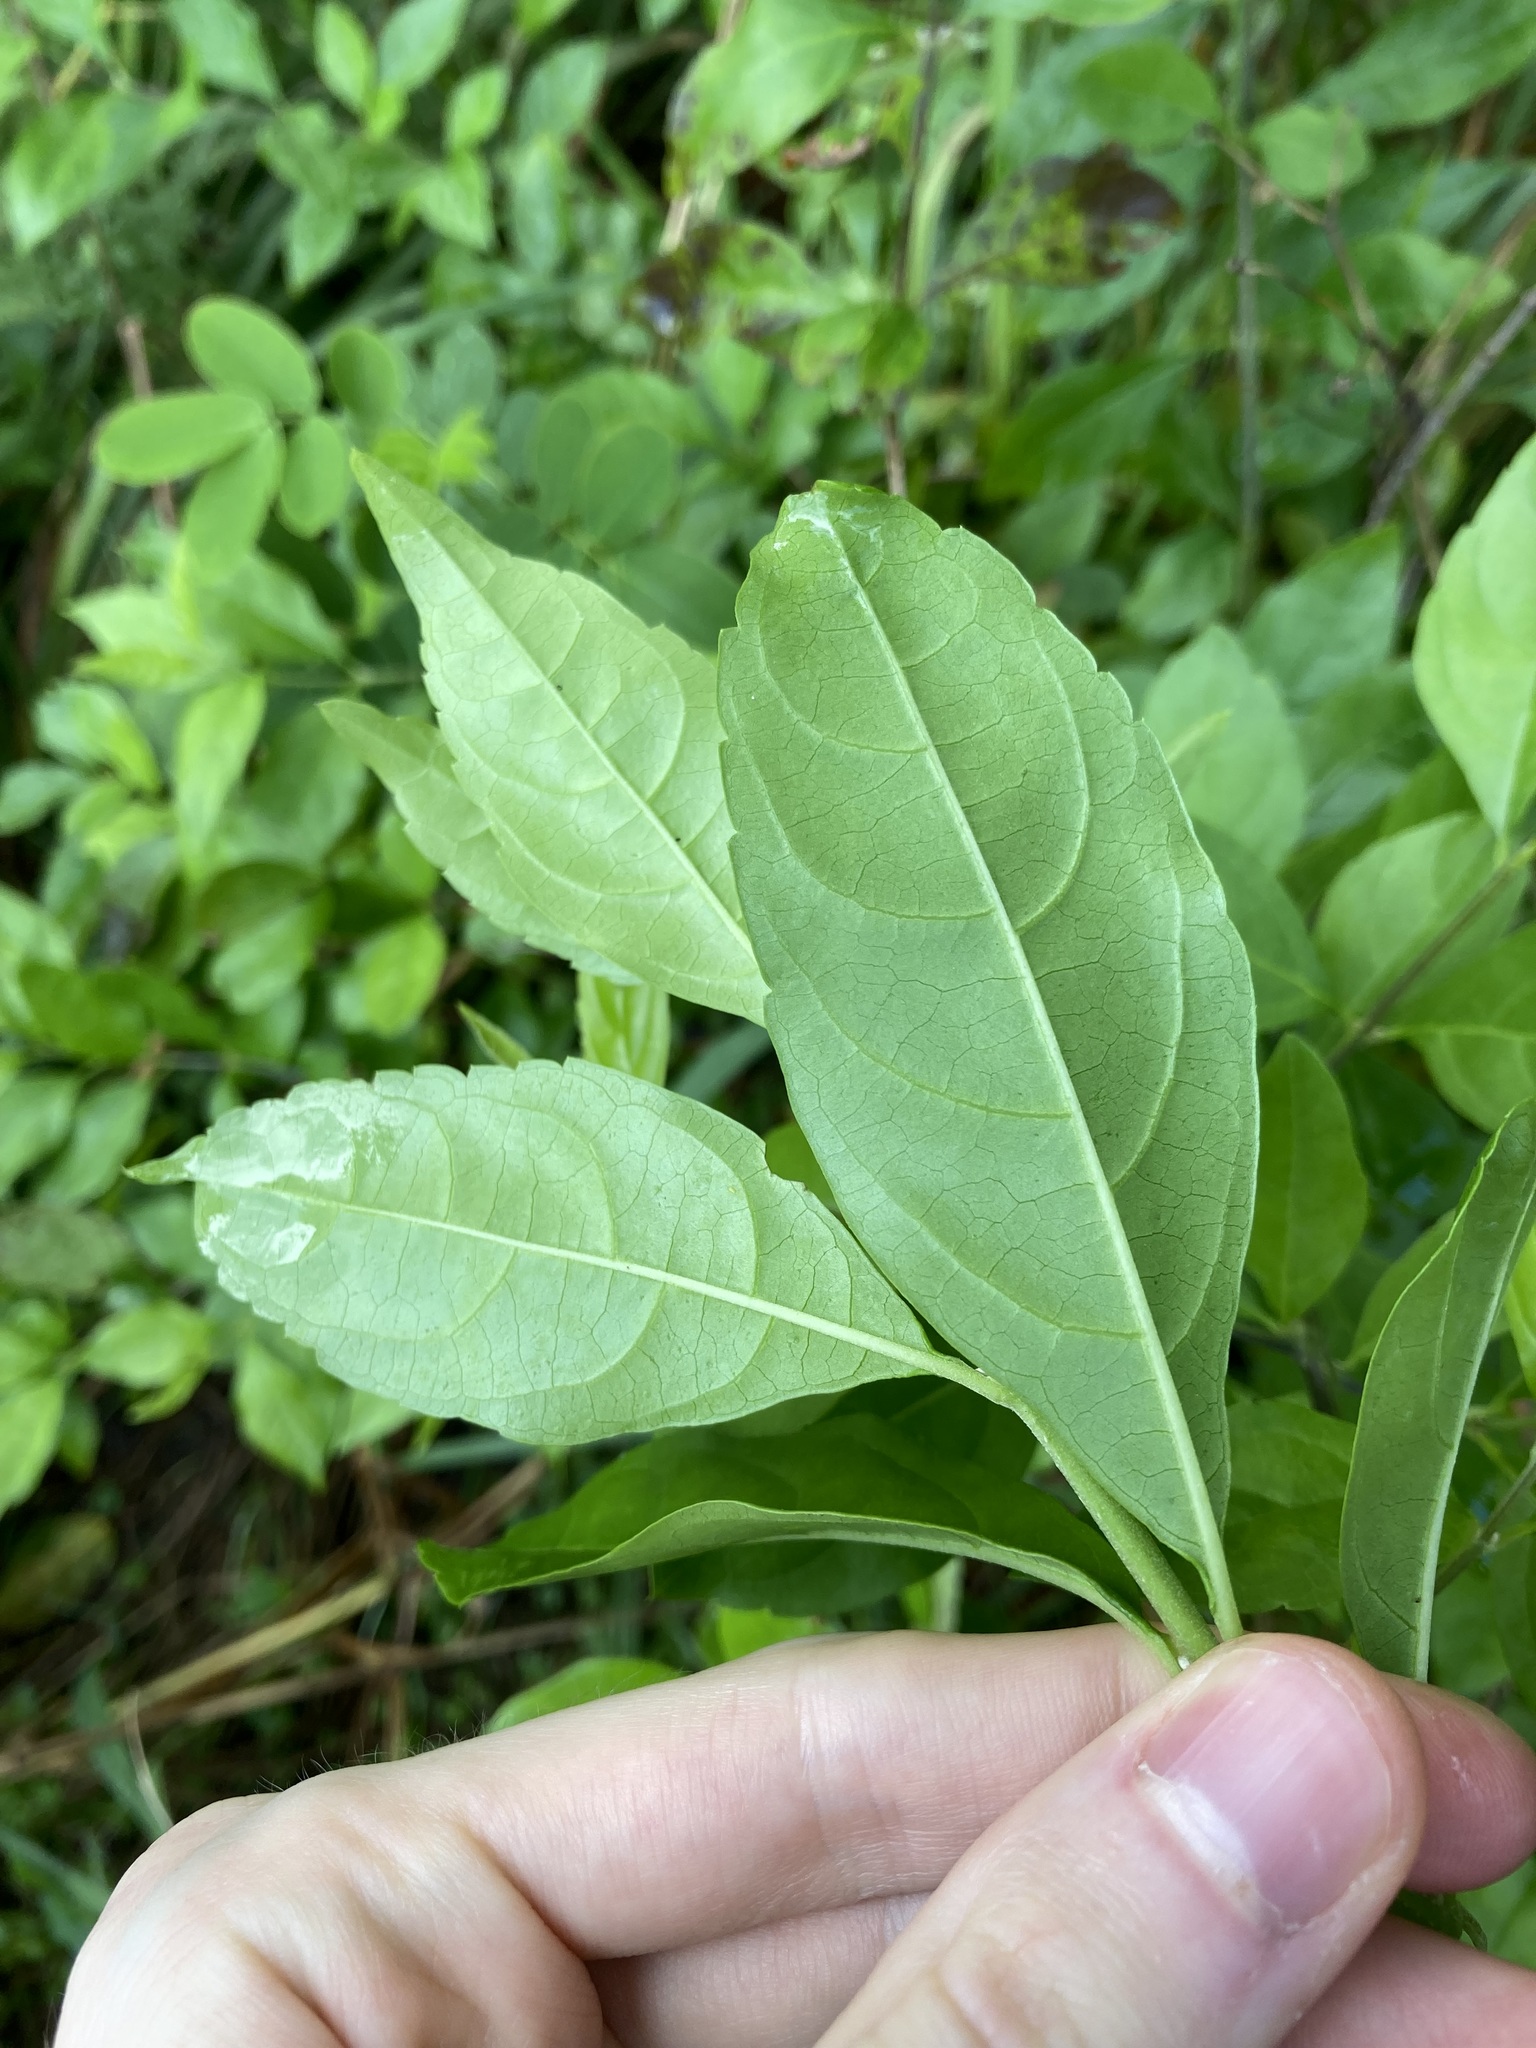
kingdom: Plantae
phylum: Tracheophyta
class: Magnoliopsida
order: Lamiales
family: Verbenaceae
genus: Duranta
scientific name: Duranta erecta
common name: Golden dewdrops
